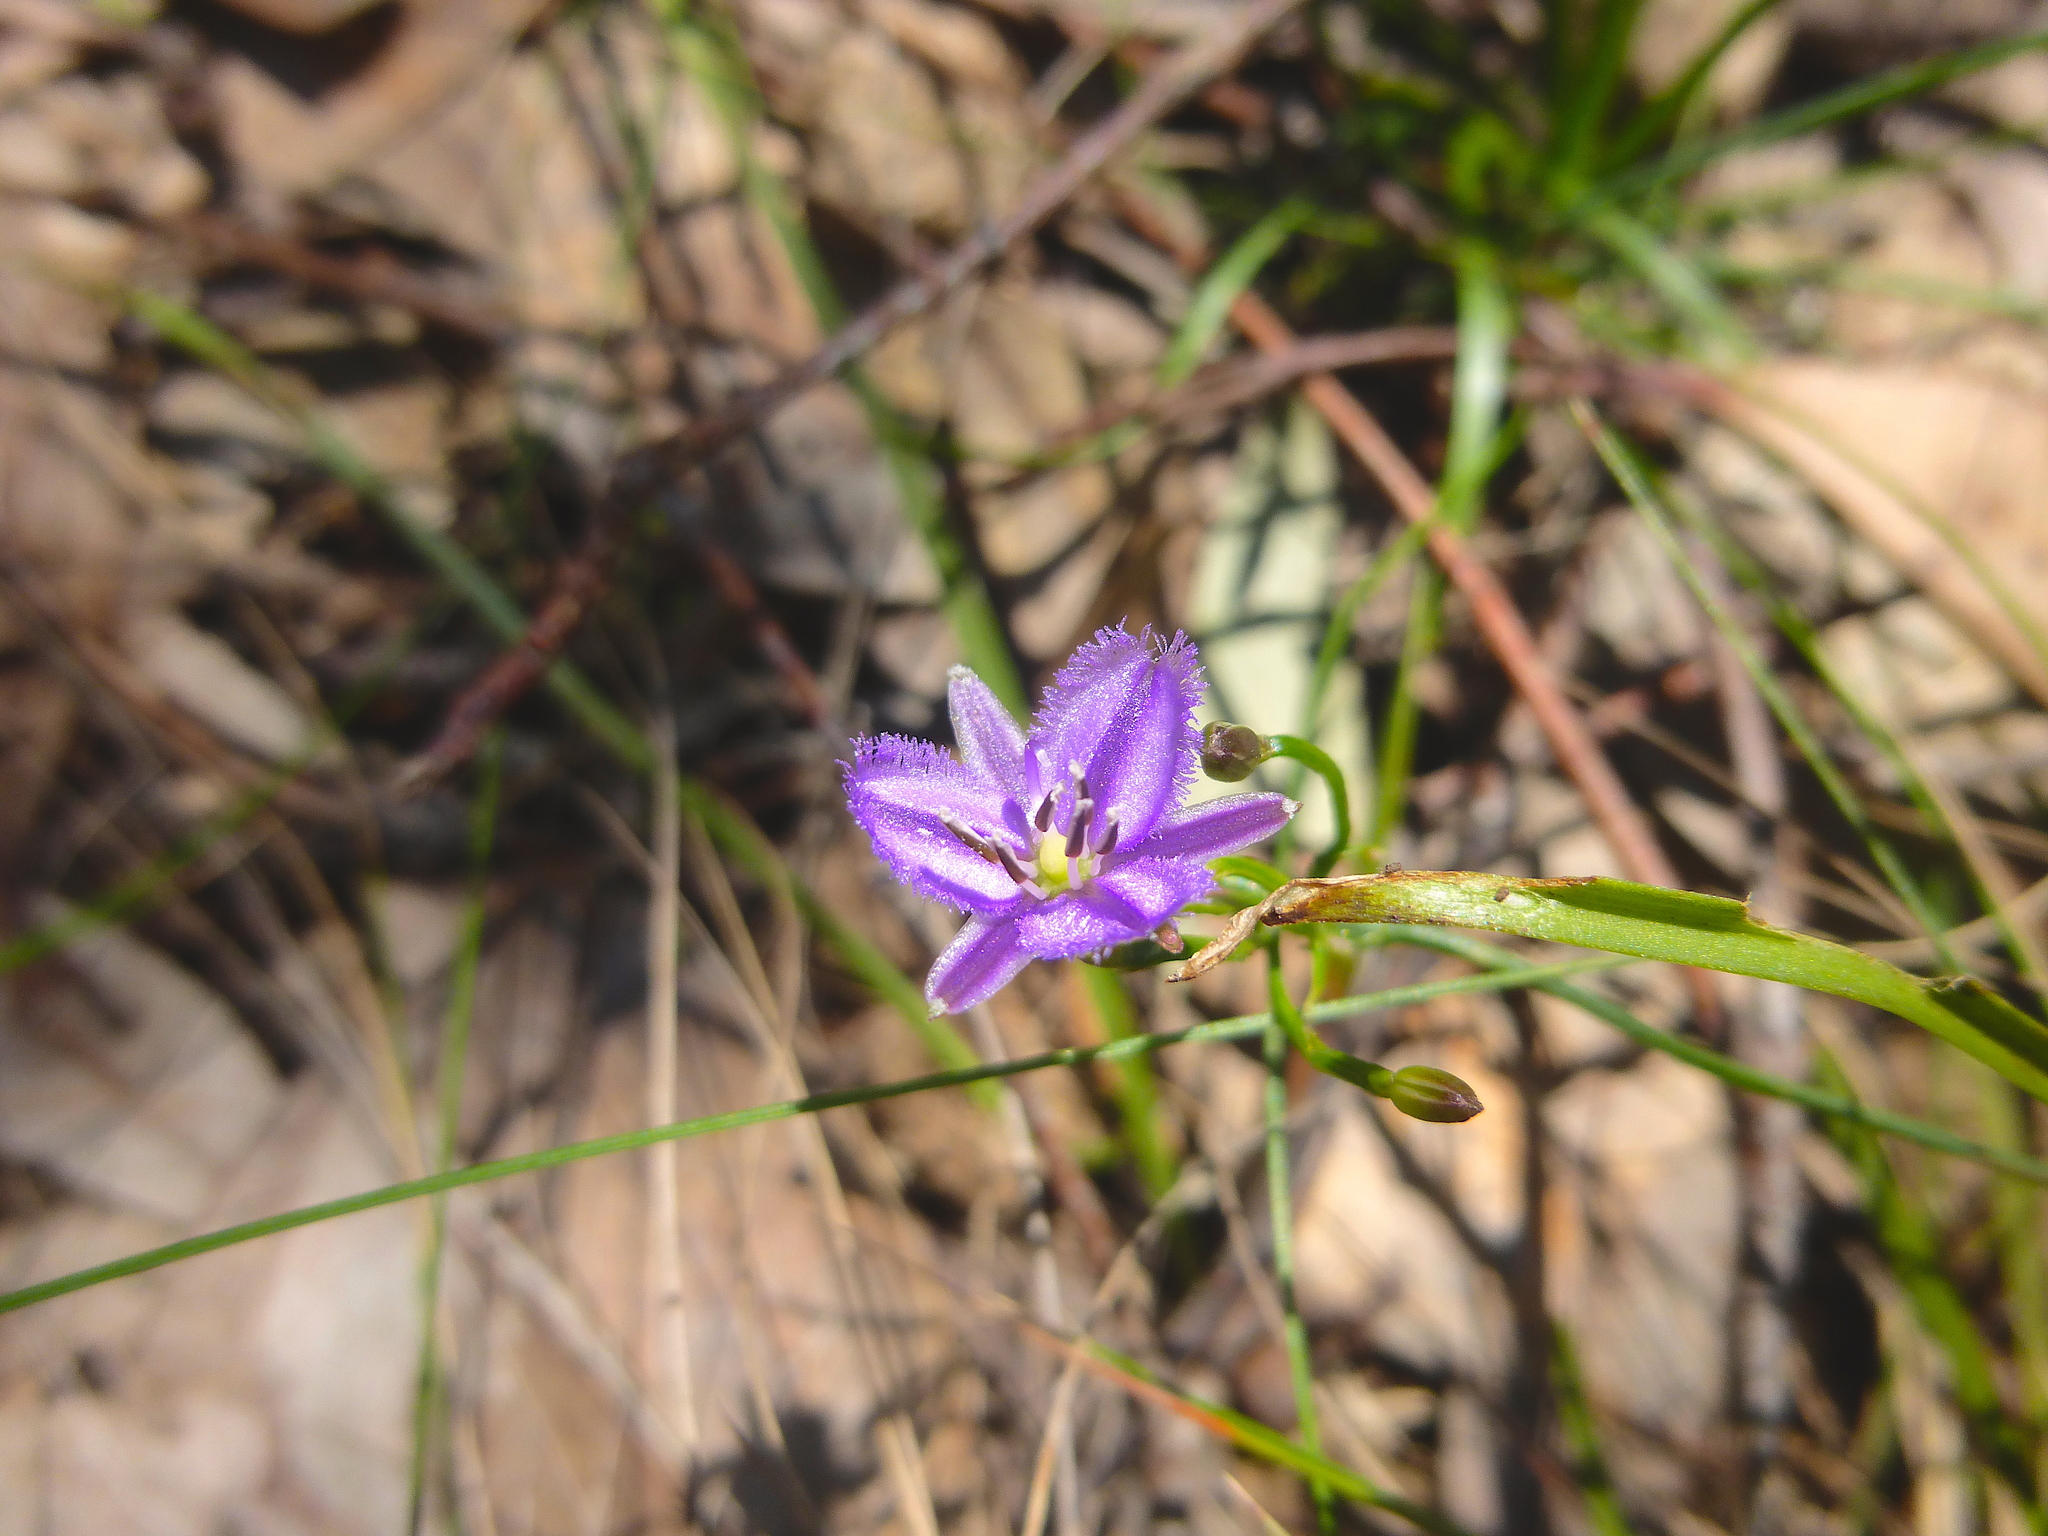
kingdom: Plantae
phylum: Tracheophyta
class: Liliopsida
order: Asparagales
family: Asparagaceae
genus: Thysanotus
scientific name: Thysanotus patersonii
